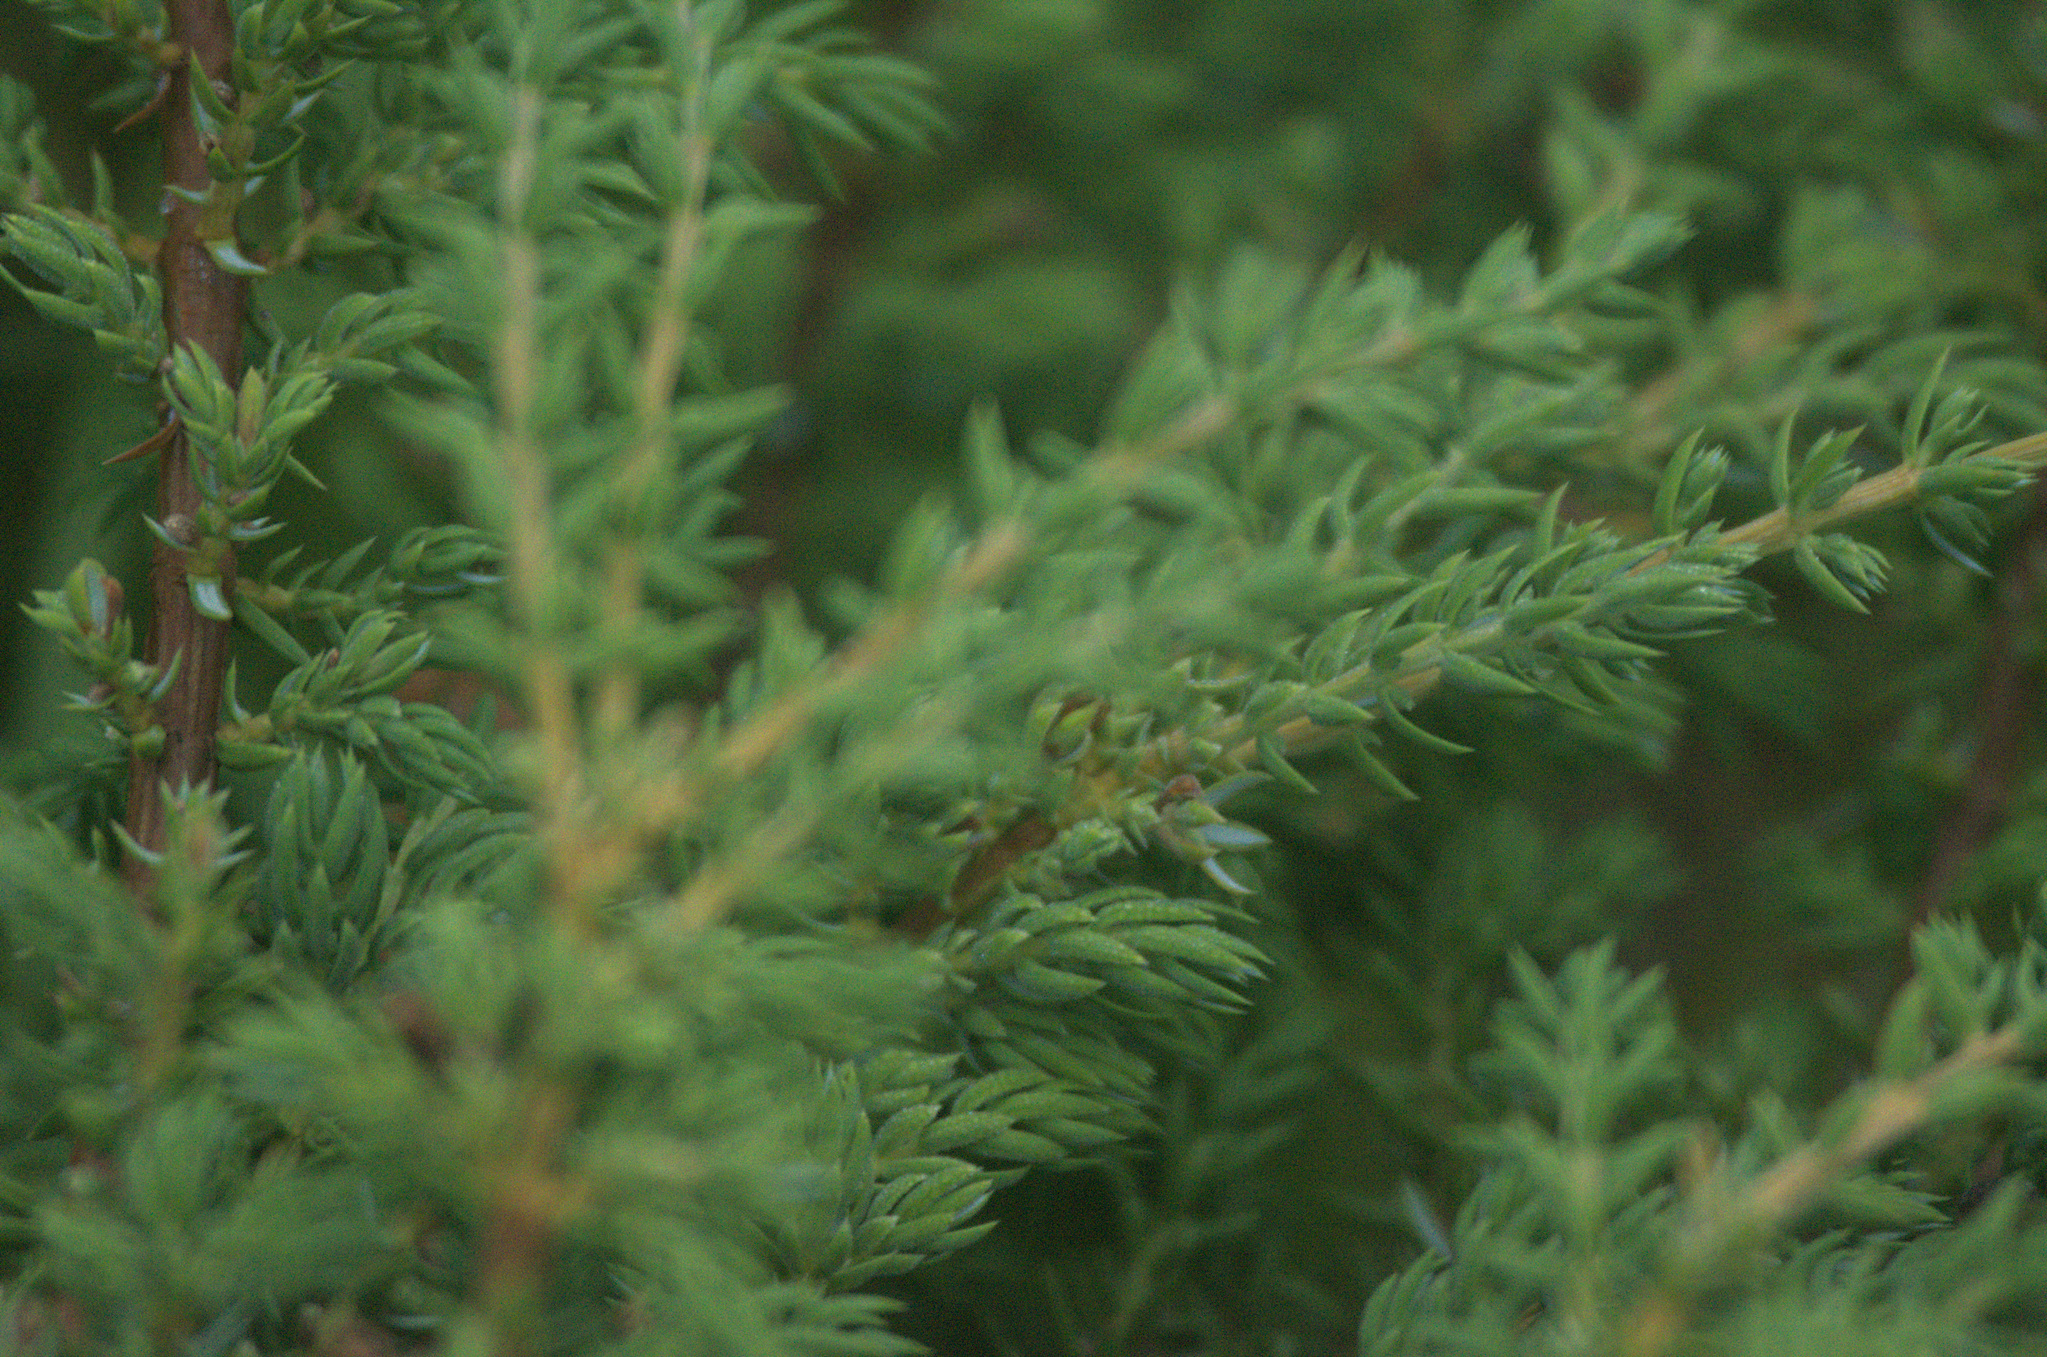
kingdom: Plantae
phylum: Tracheophyta
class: Pinopsida
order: Pinales
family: Cupressaceae
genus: Juniperus
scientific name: Juniperus communis
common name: Common juniper
